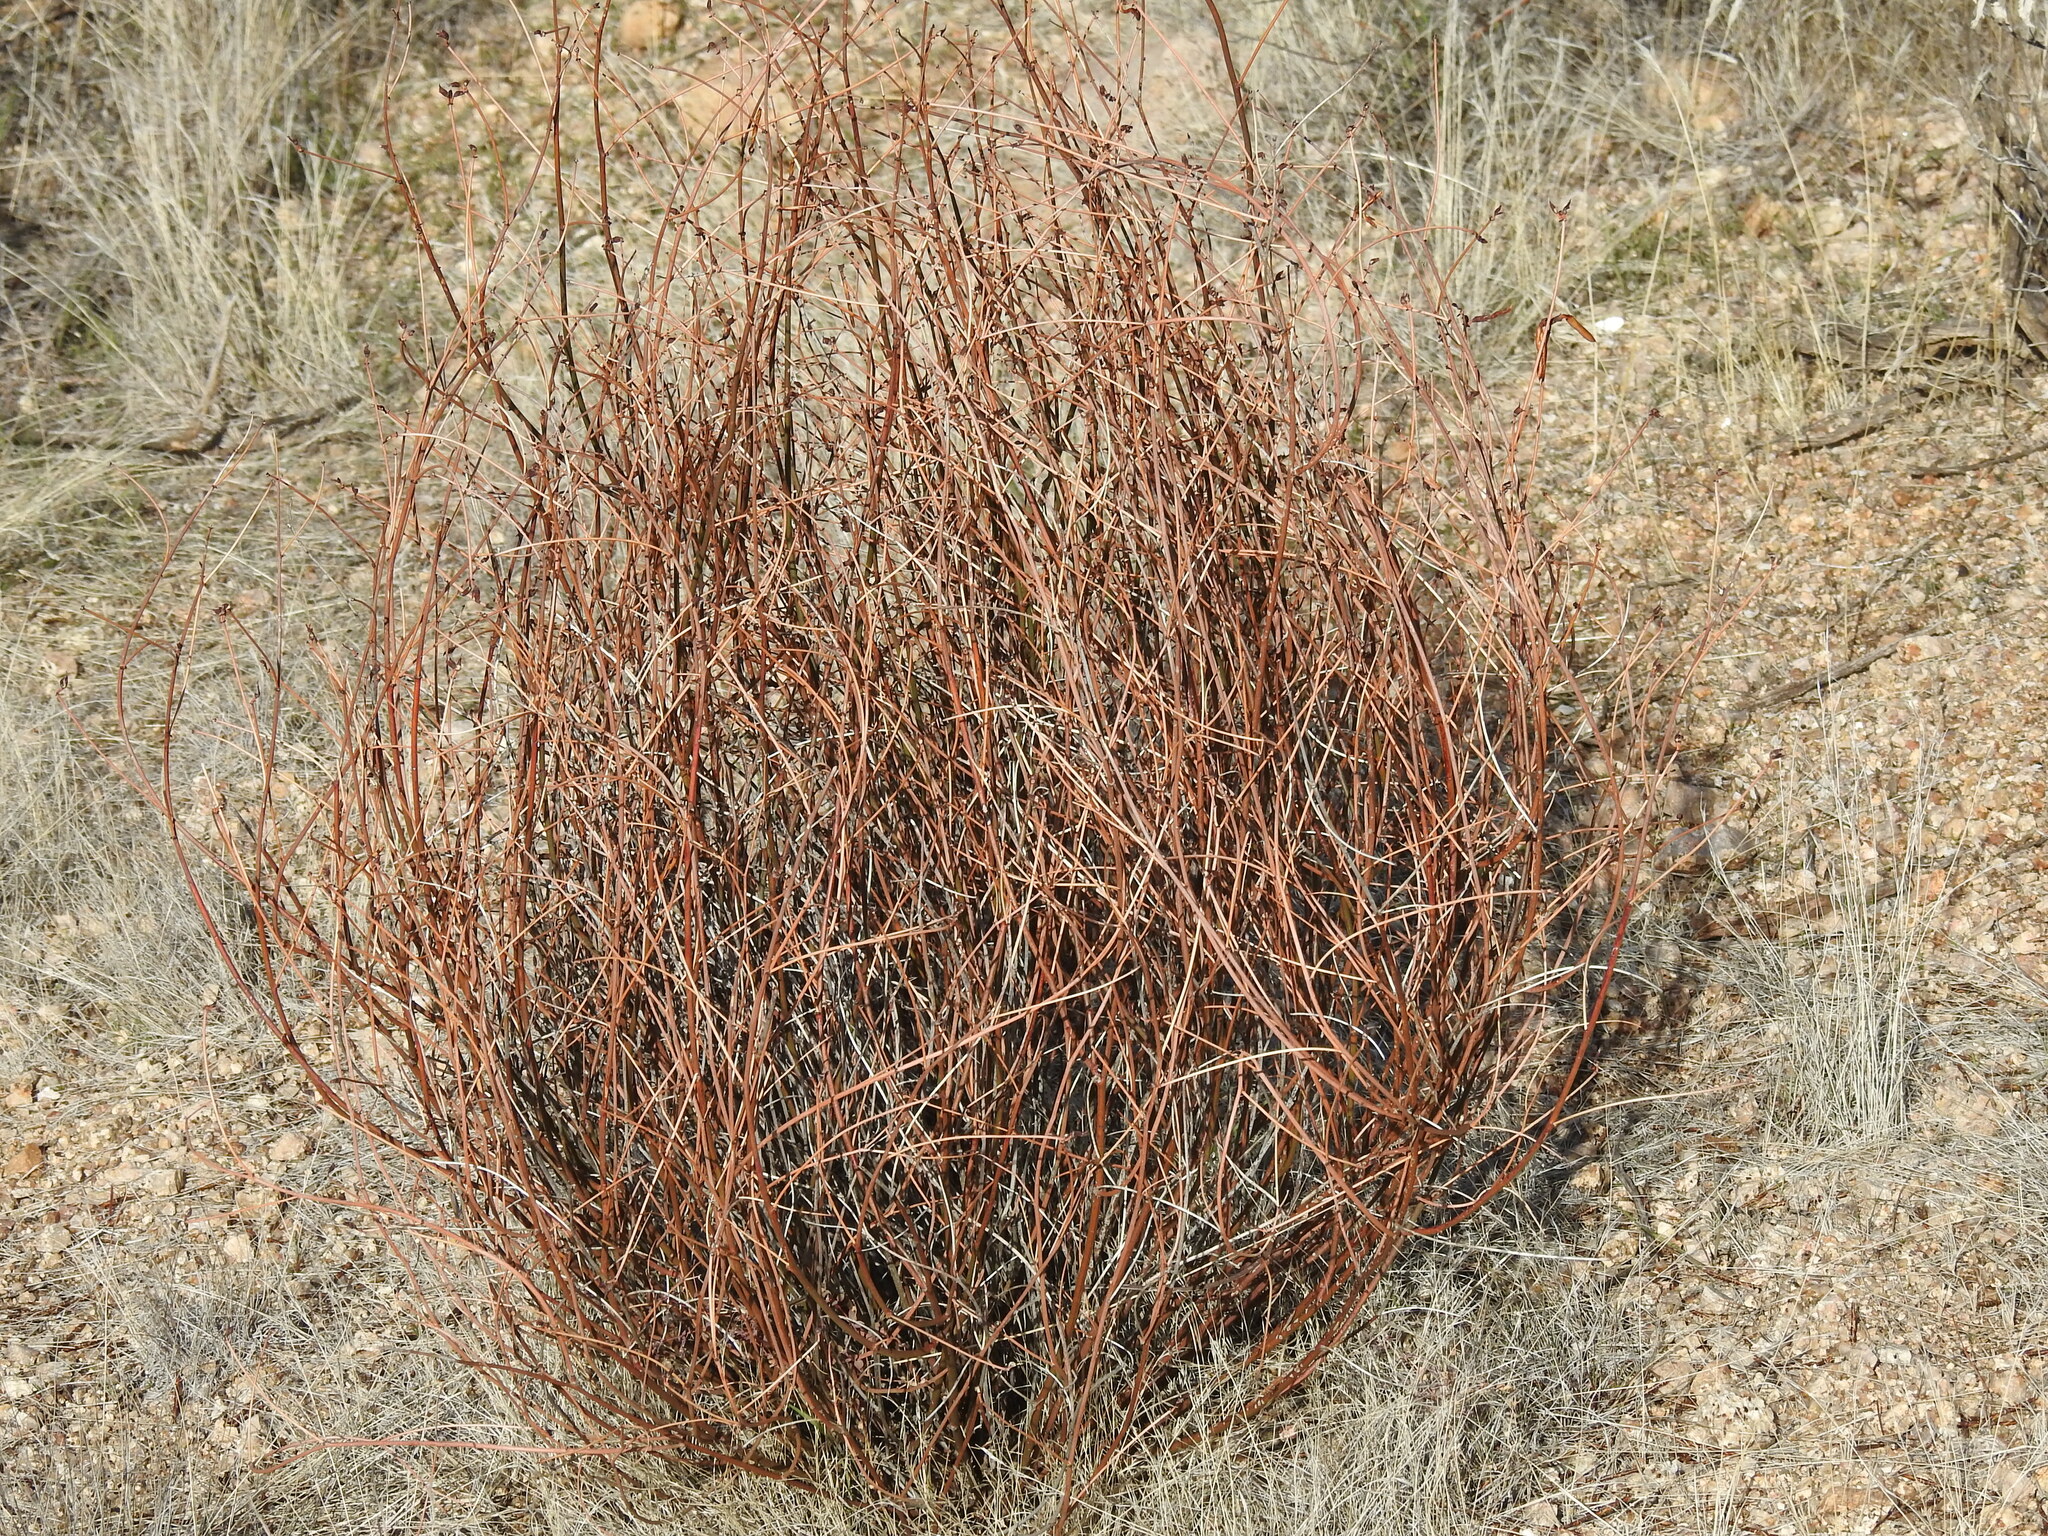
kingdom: Plantae
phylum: Tracheophyta
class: Magnoliopsida
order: Fabales
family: Fabaceae
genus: Acmispon
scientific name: Acmispon rigidus
